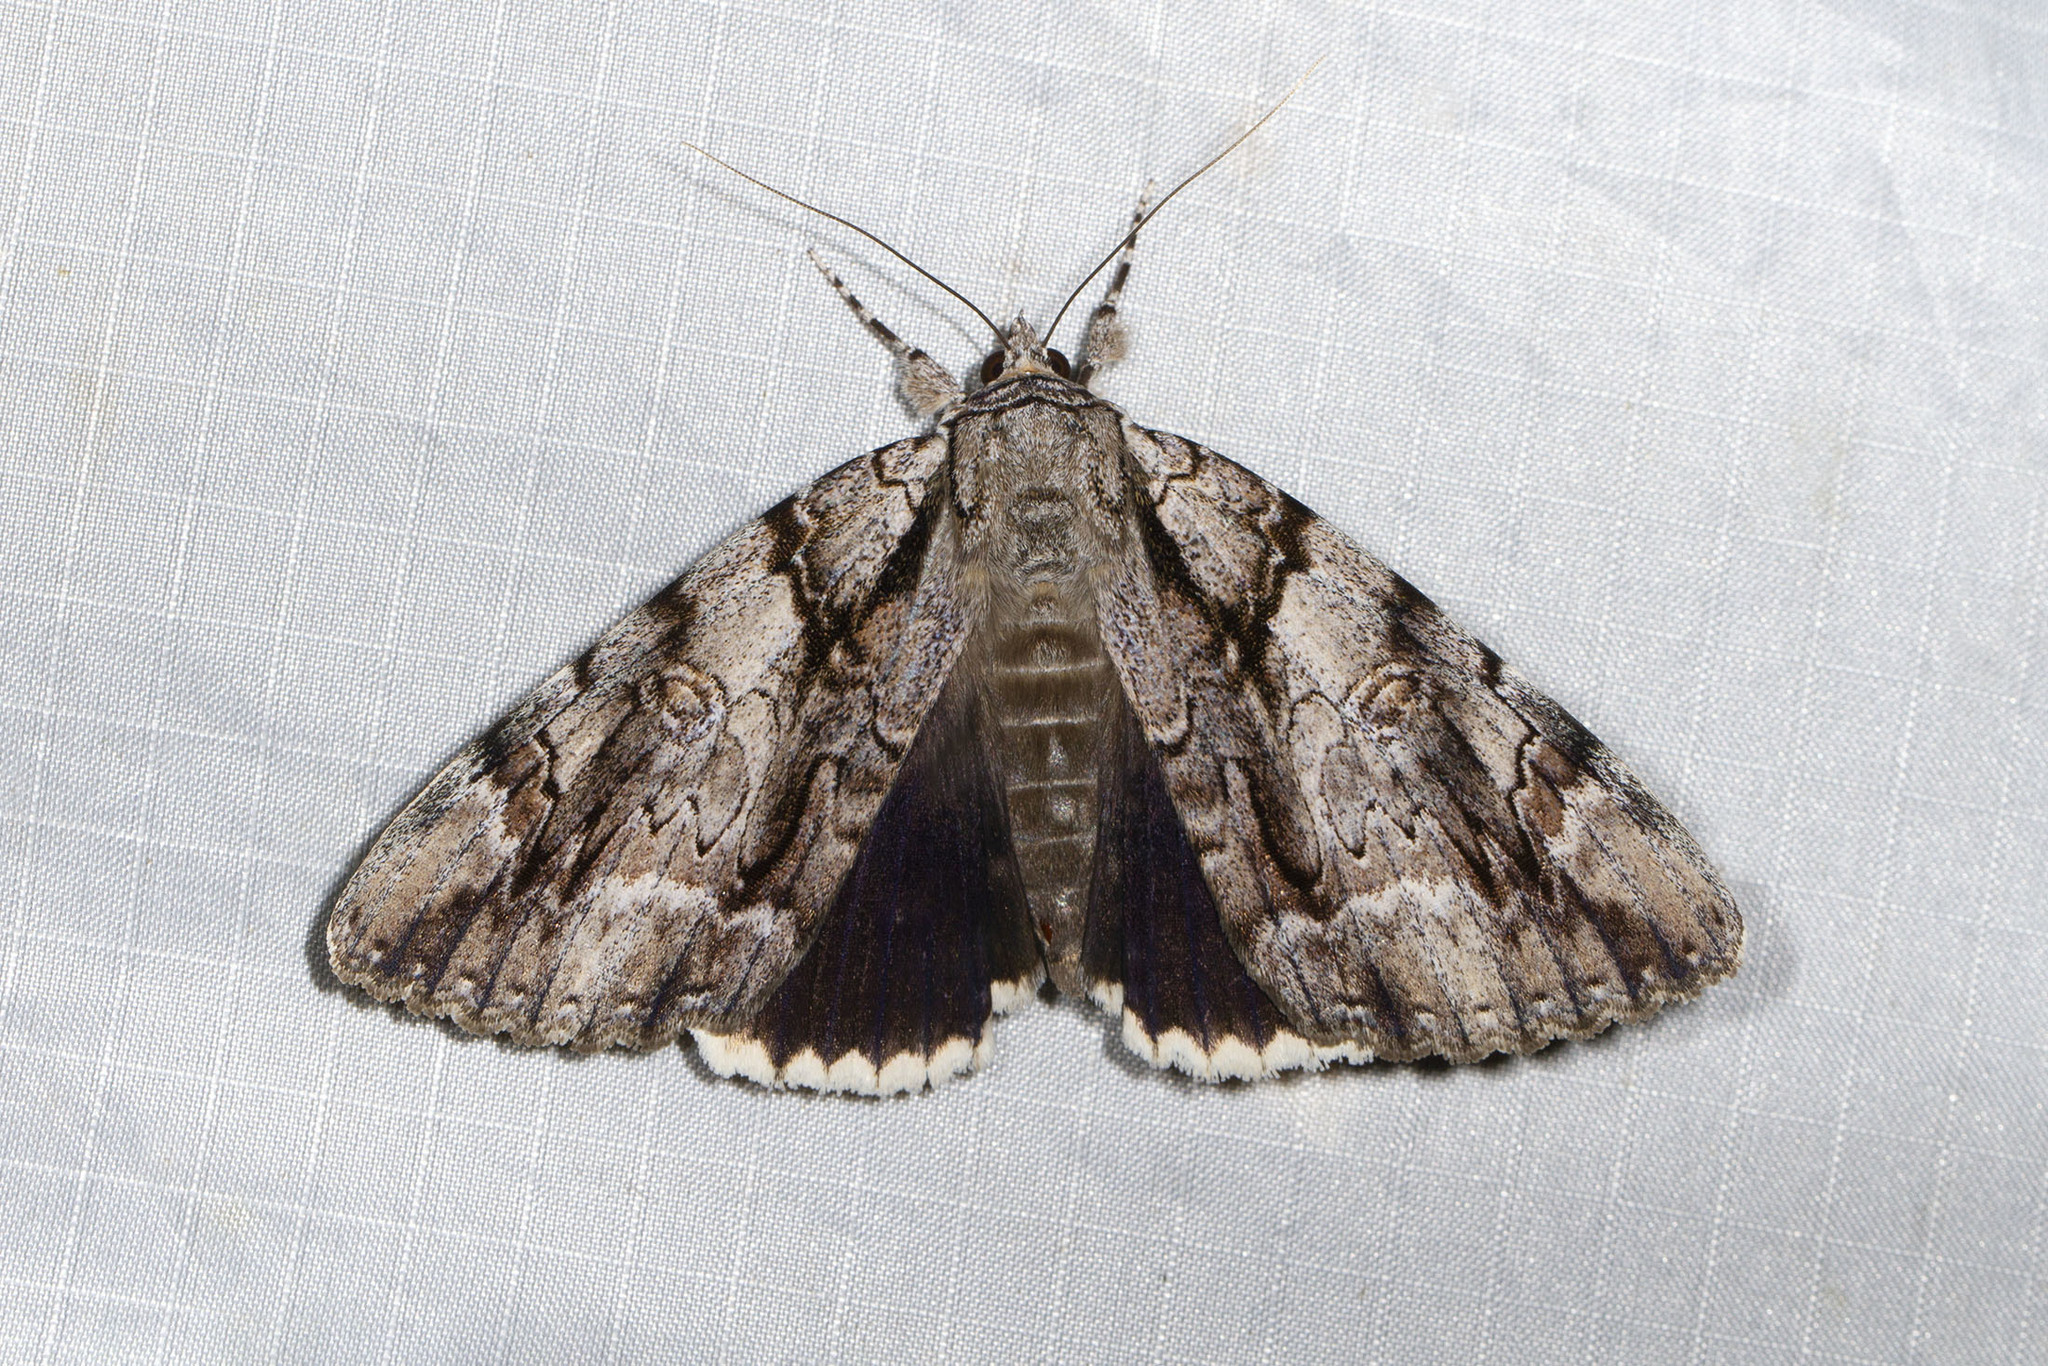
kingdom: Animalia
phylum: Arthropoda
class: Insecta
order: Lepidoptera
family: Erebidae
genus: Catocala
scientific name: Catocala vidua
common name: The widow
